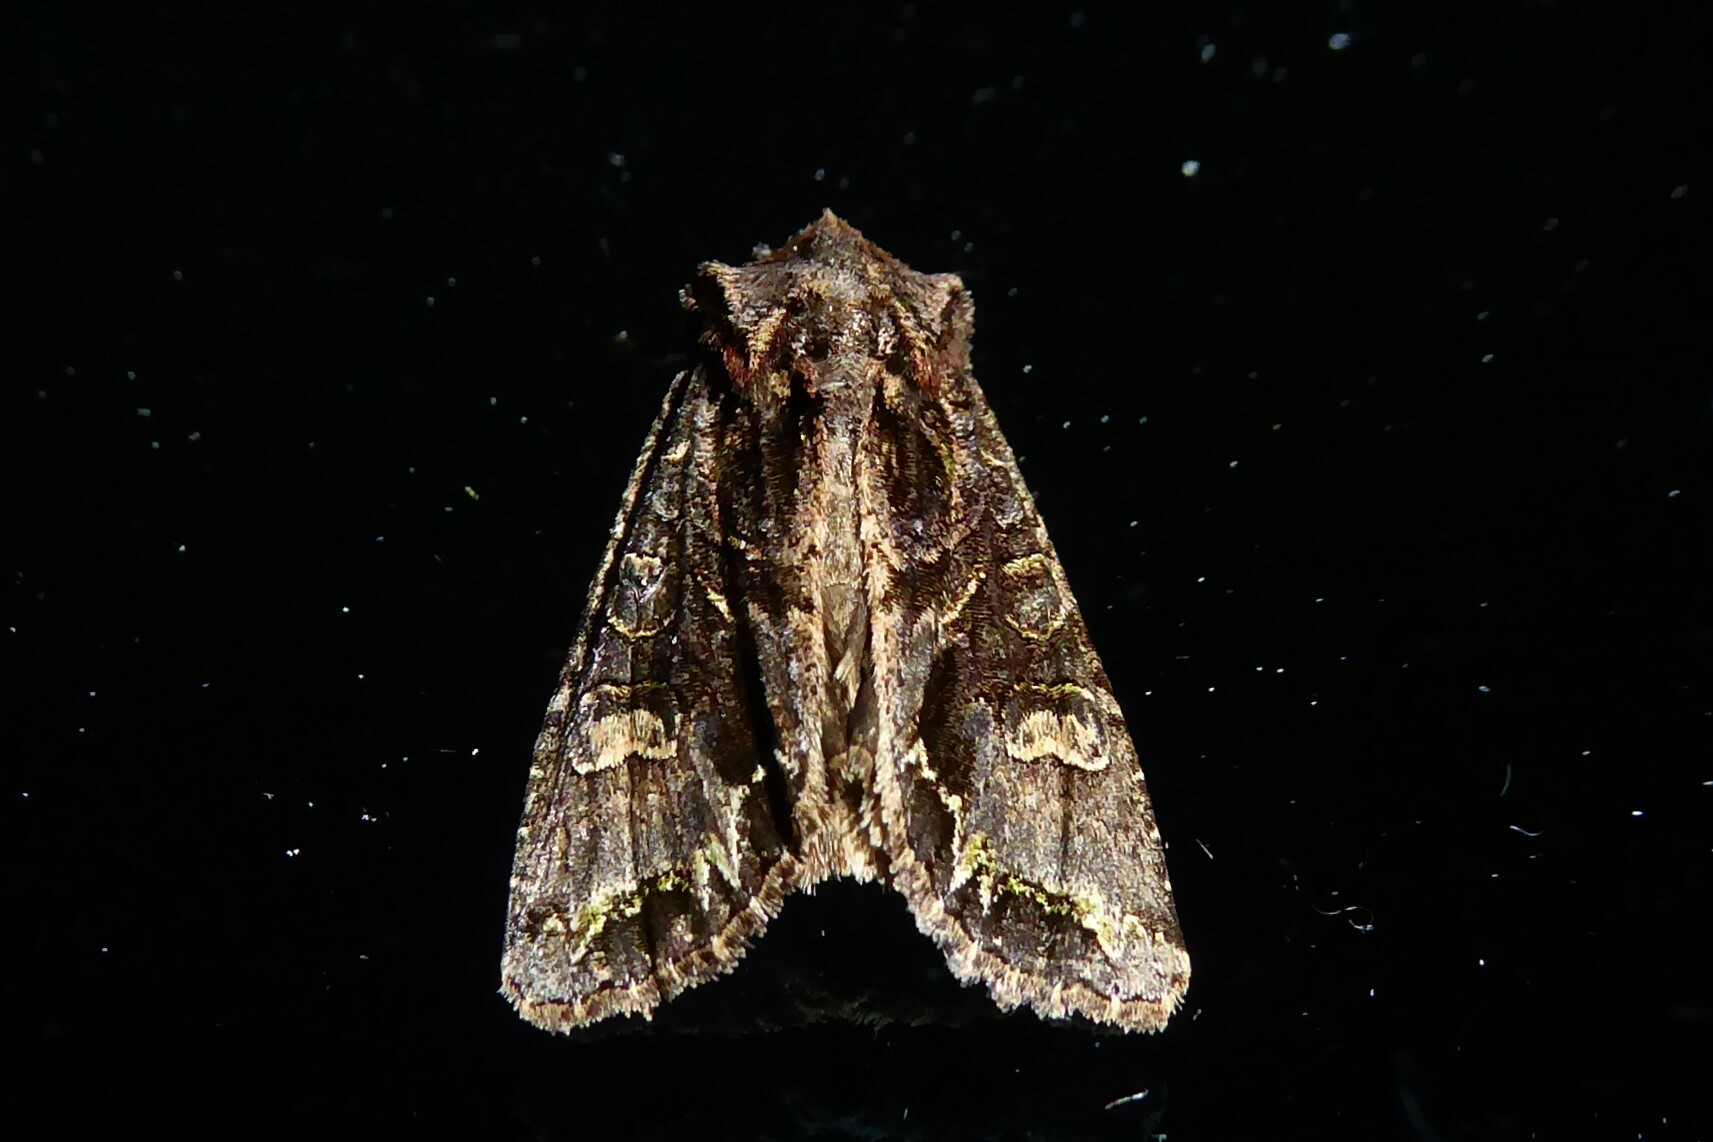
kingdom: Animalia
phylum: Arthropoda
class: Insecta
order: Lepidoptera
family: Noctuidae
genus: Ichneutica
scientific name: Ichneutica insignis
